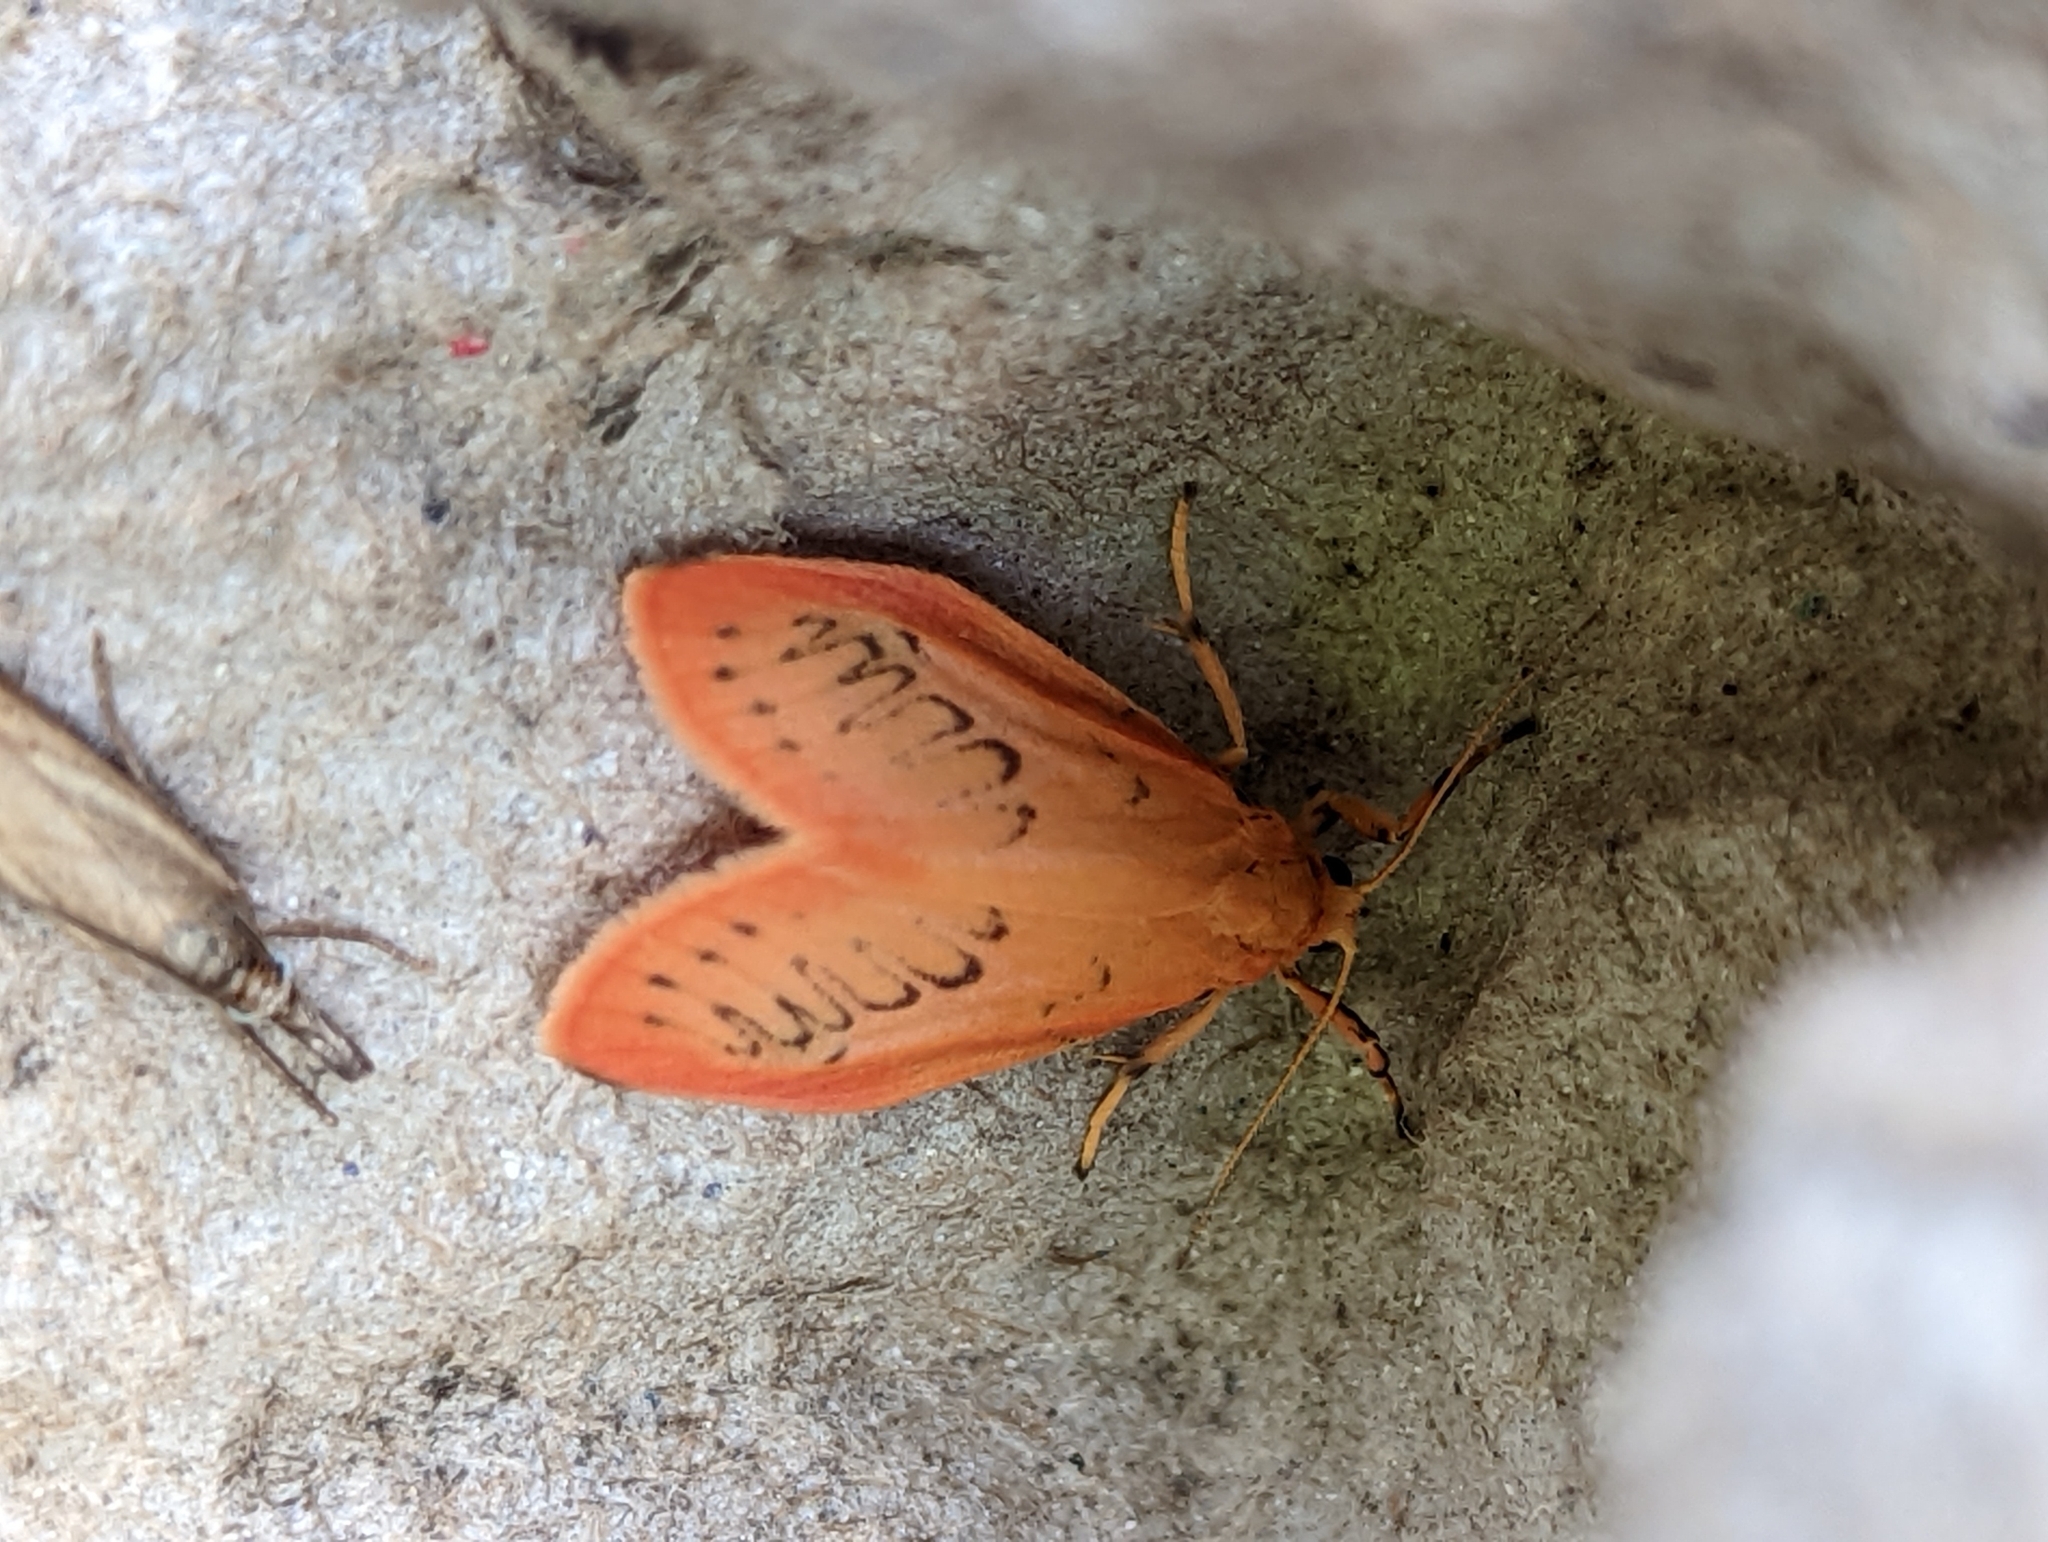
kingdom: Animalia
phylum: Arthropoda
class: Insecta
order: Lepidoptera
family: Erebidae
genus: Miltochrista
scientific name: Miltochrista miniata
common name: Rosy footman
